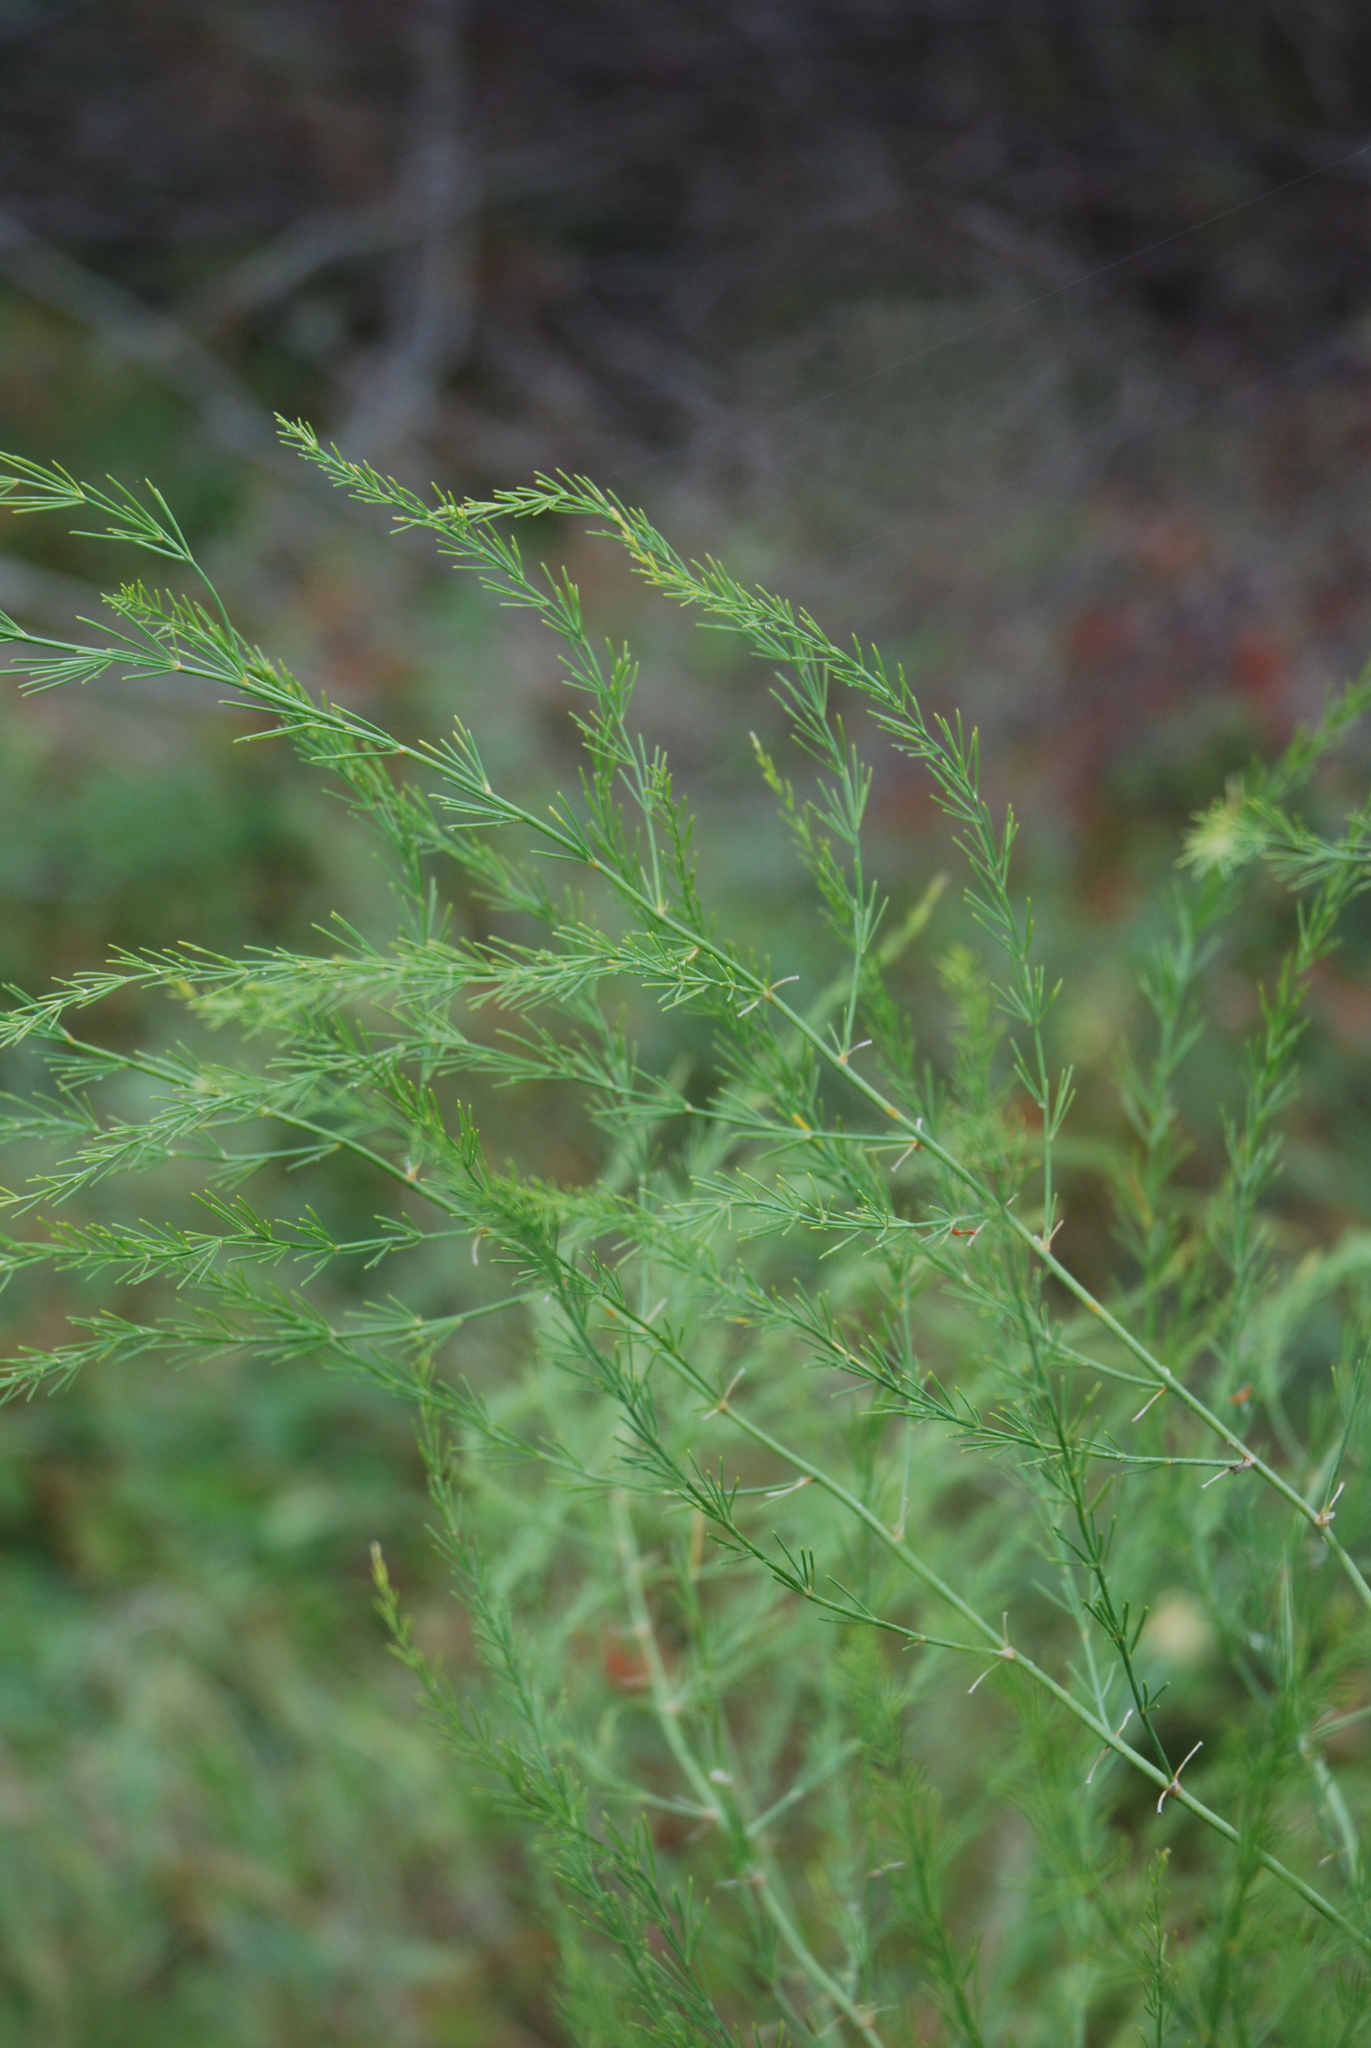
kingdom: Plantae
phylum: Tracheophyta
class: Liliopsida
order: Asparagales
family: Asparagaceae
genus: Asparagus
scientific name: Asparagus officinalis
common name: Garden asparagus
